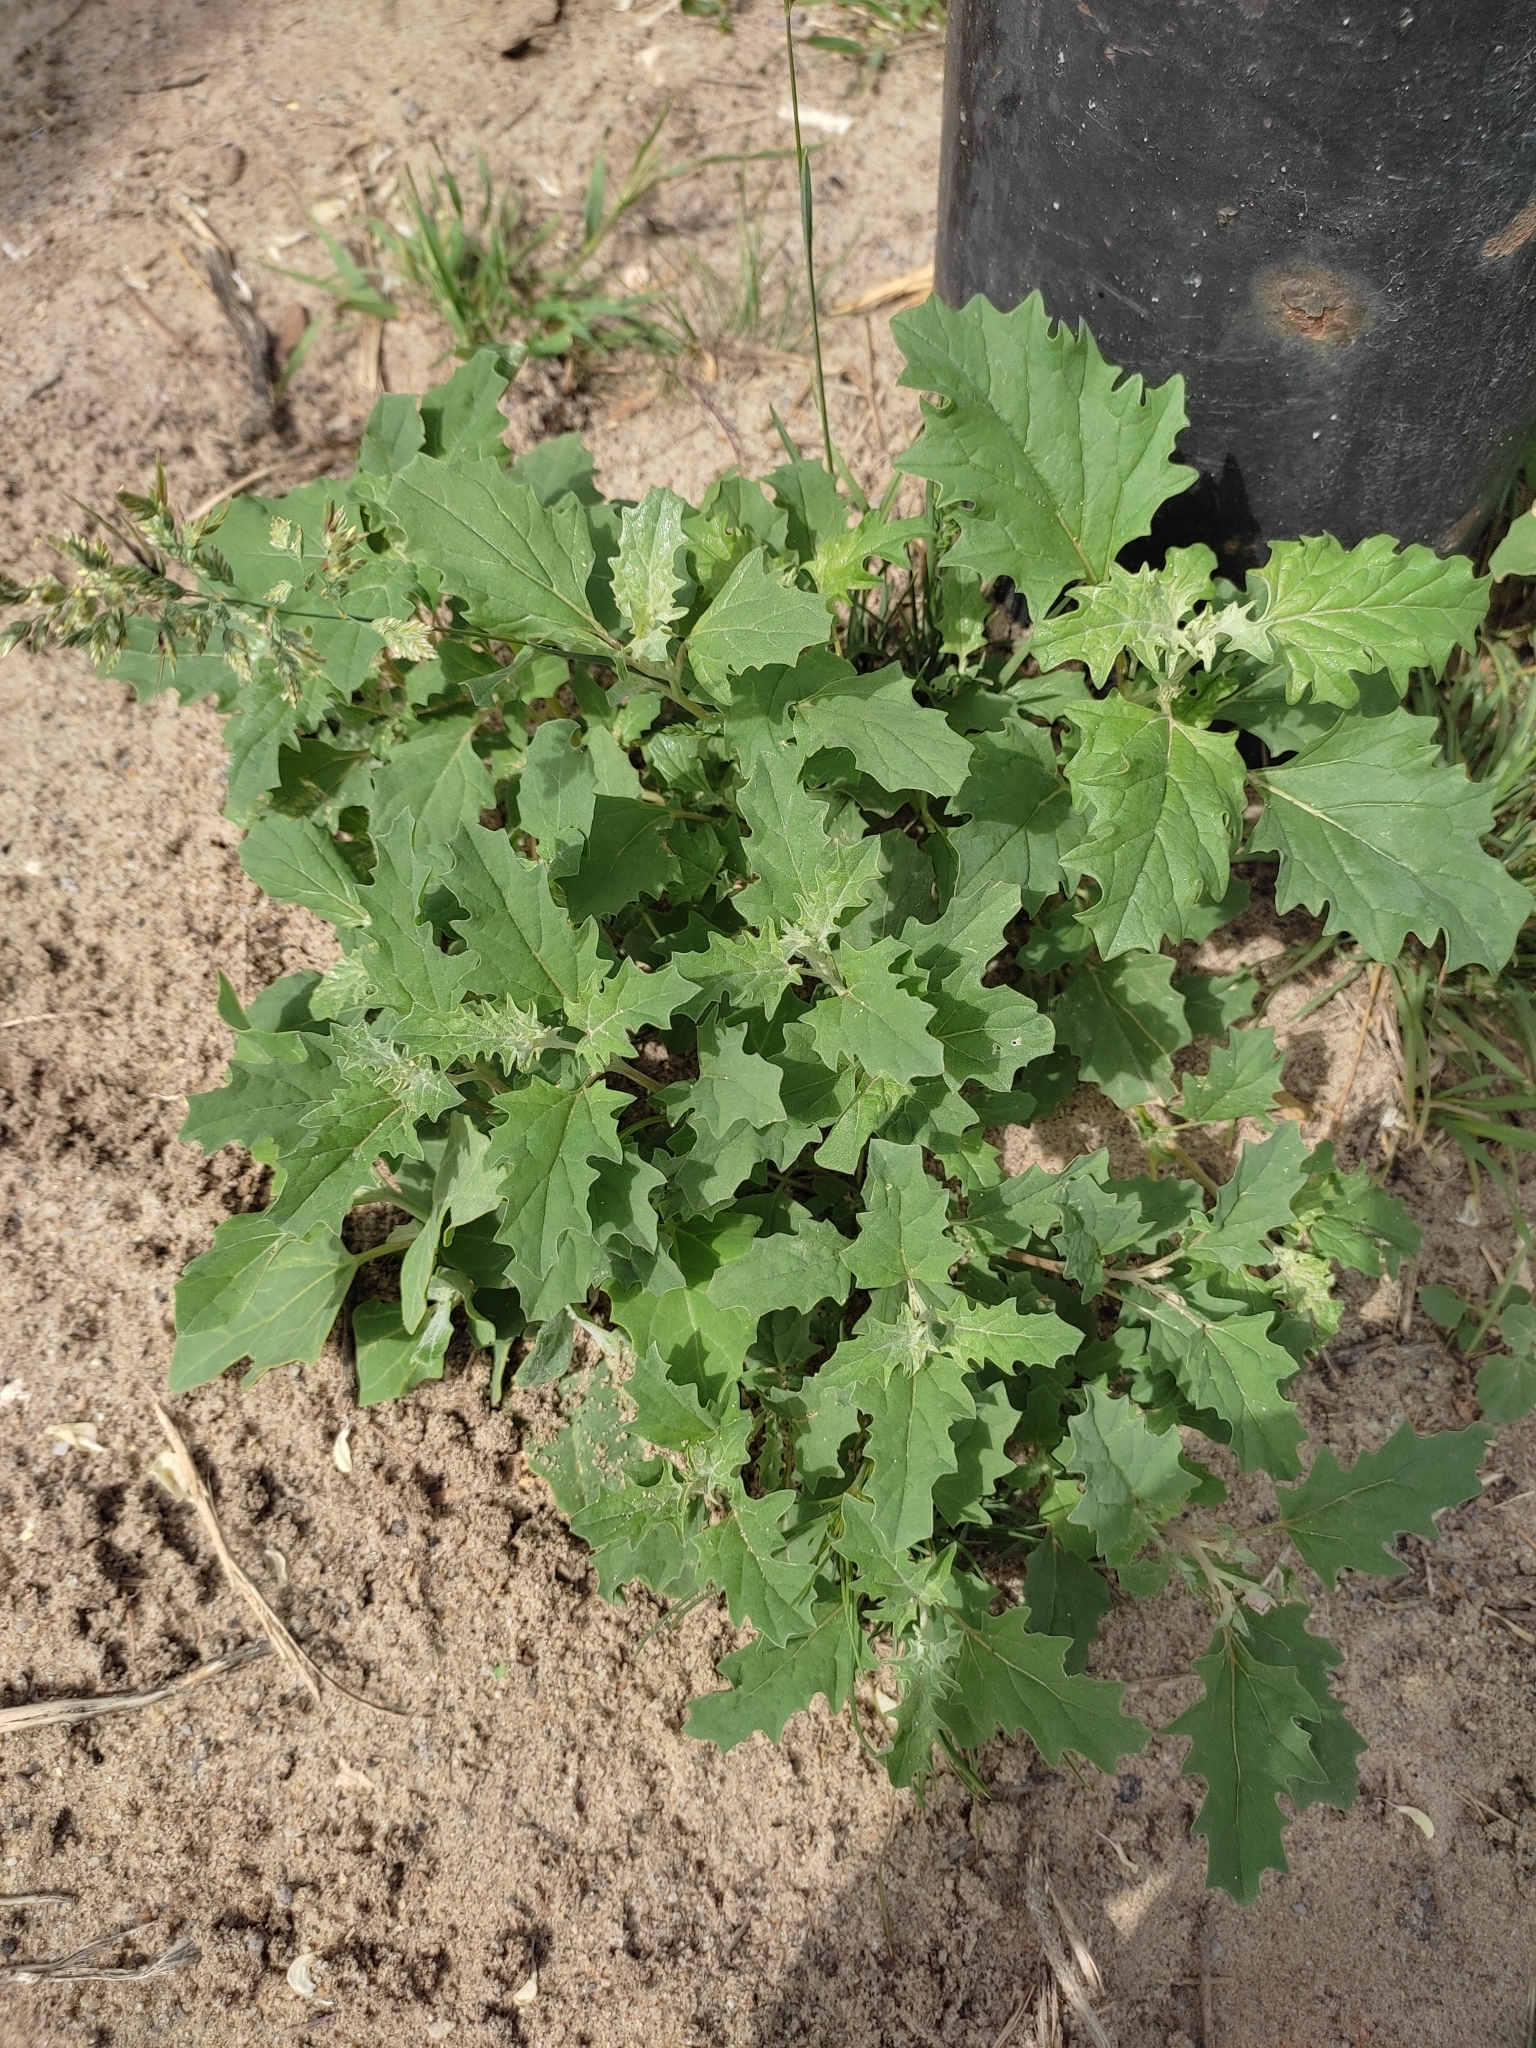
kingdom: Plantae
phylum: Tracheophyta
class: Magnoliopsida
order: Caryophyllales
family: Amaranthaceae
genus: Atriplex
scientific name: Atriplex tatarica
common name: Tatarian orache
